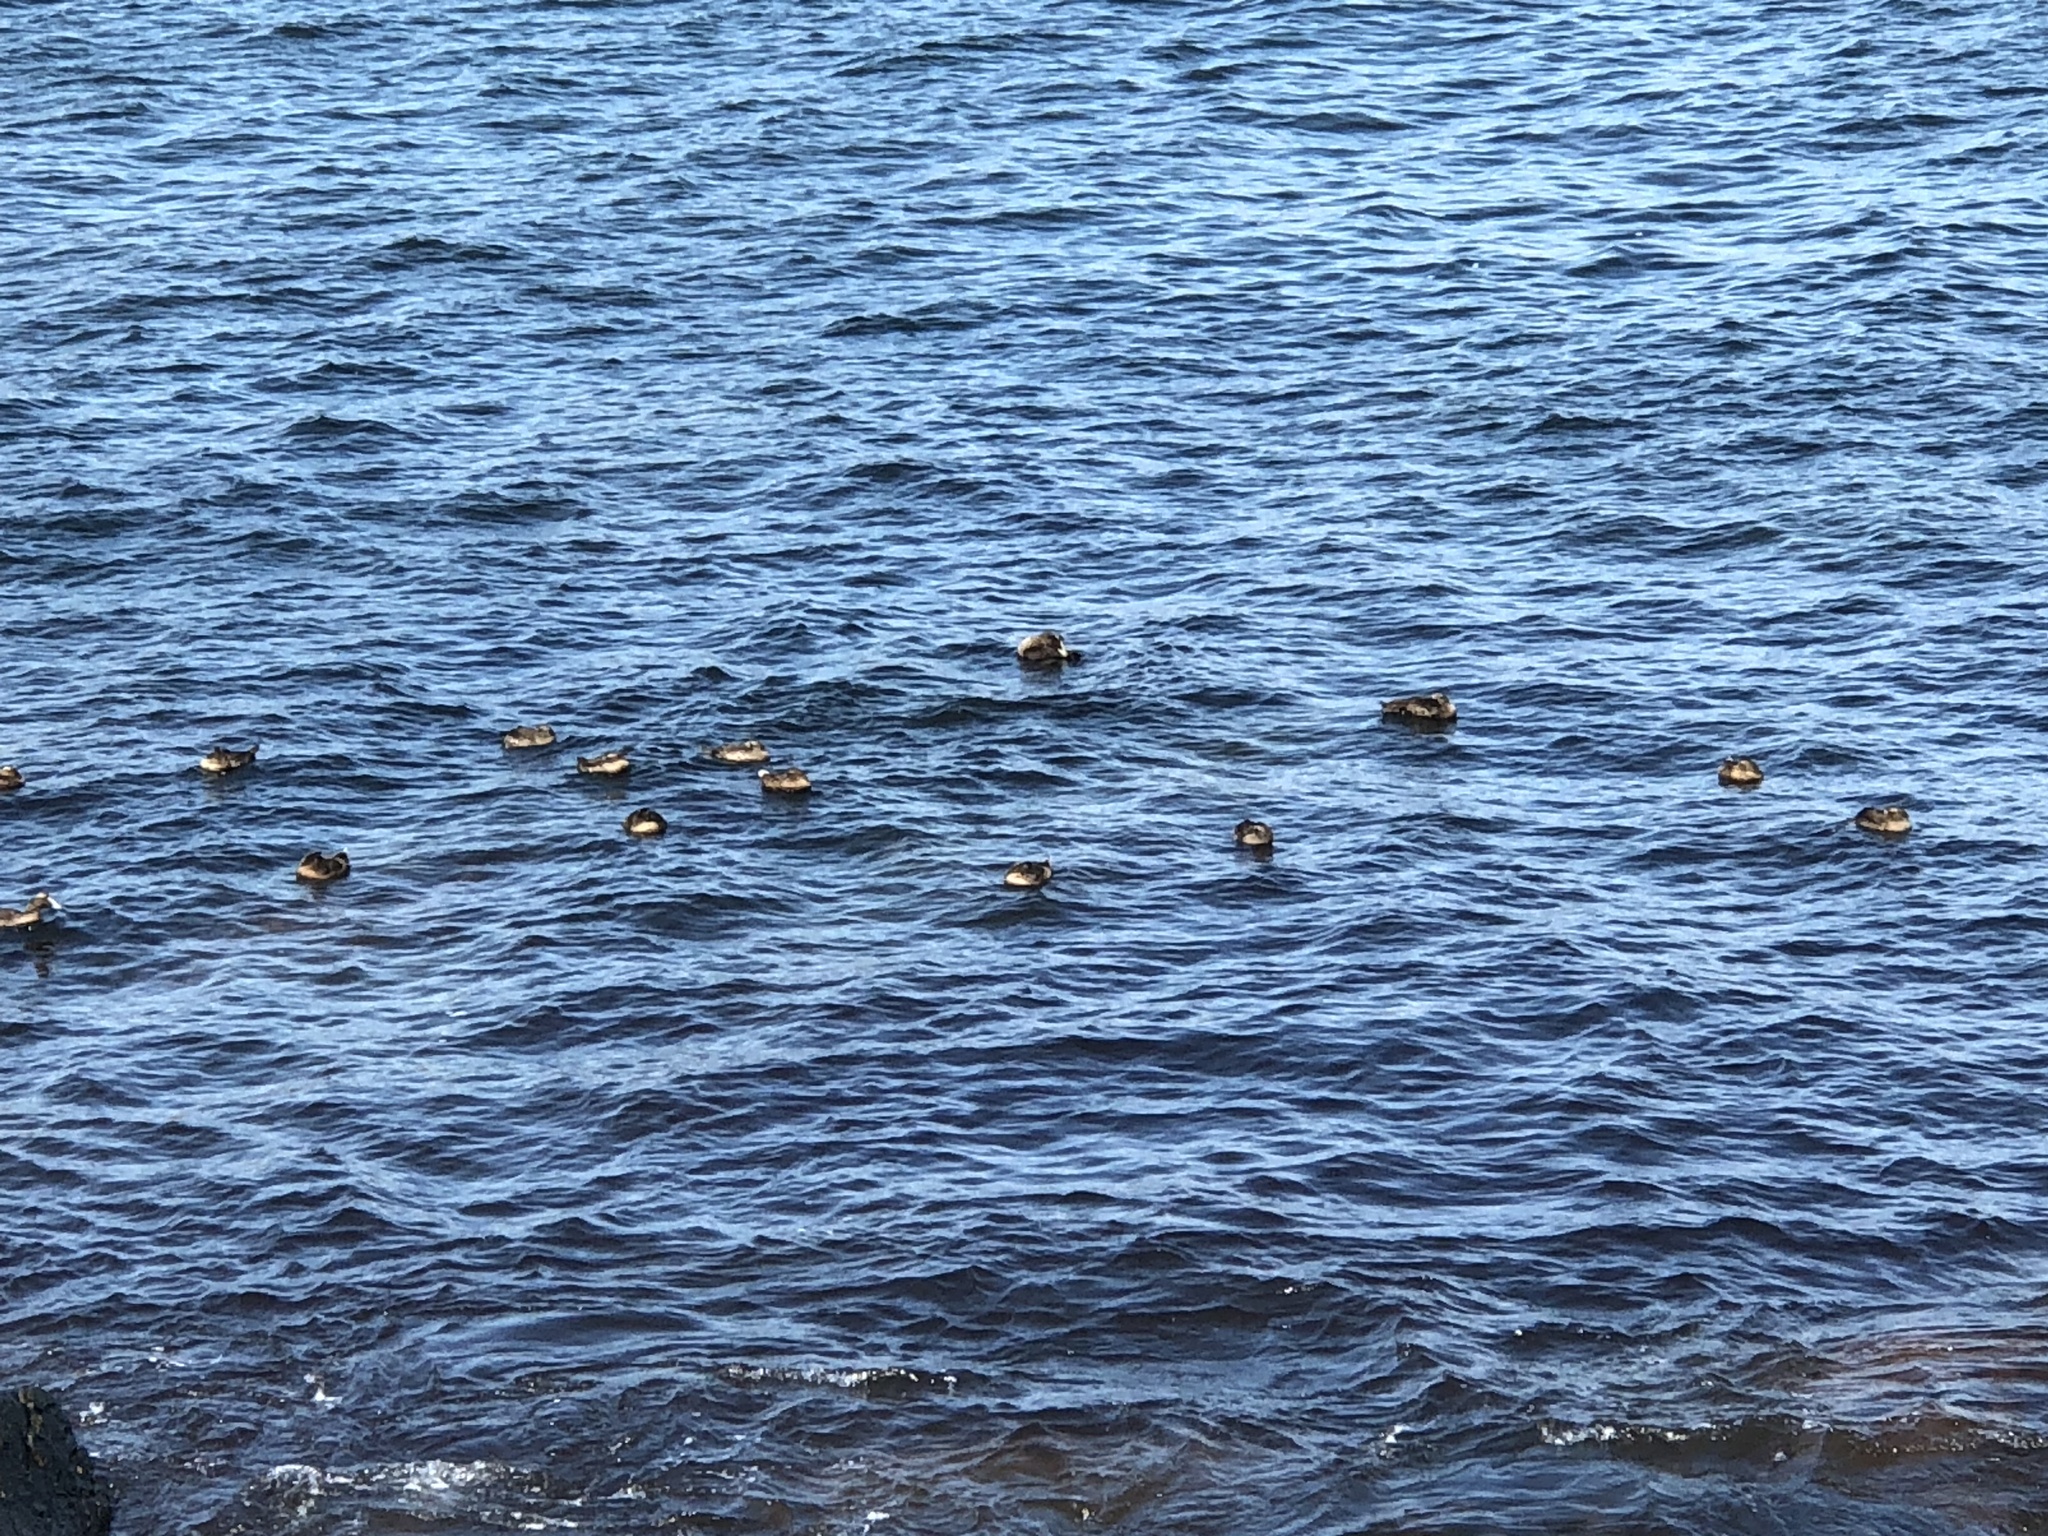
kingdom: Animalia
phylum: Chordata
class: Aves
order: Anseriformes
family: Anatidae
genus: Somateria
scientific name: Somateria mollissima
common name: Common eider
